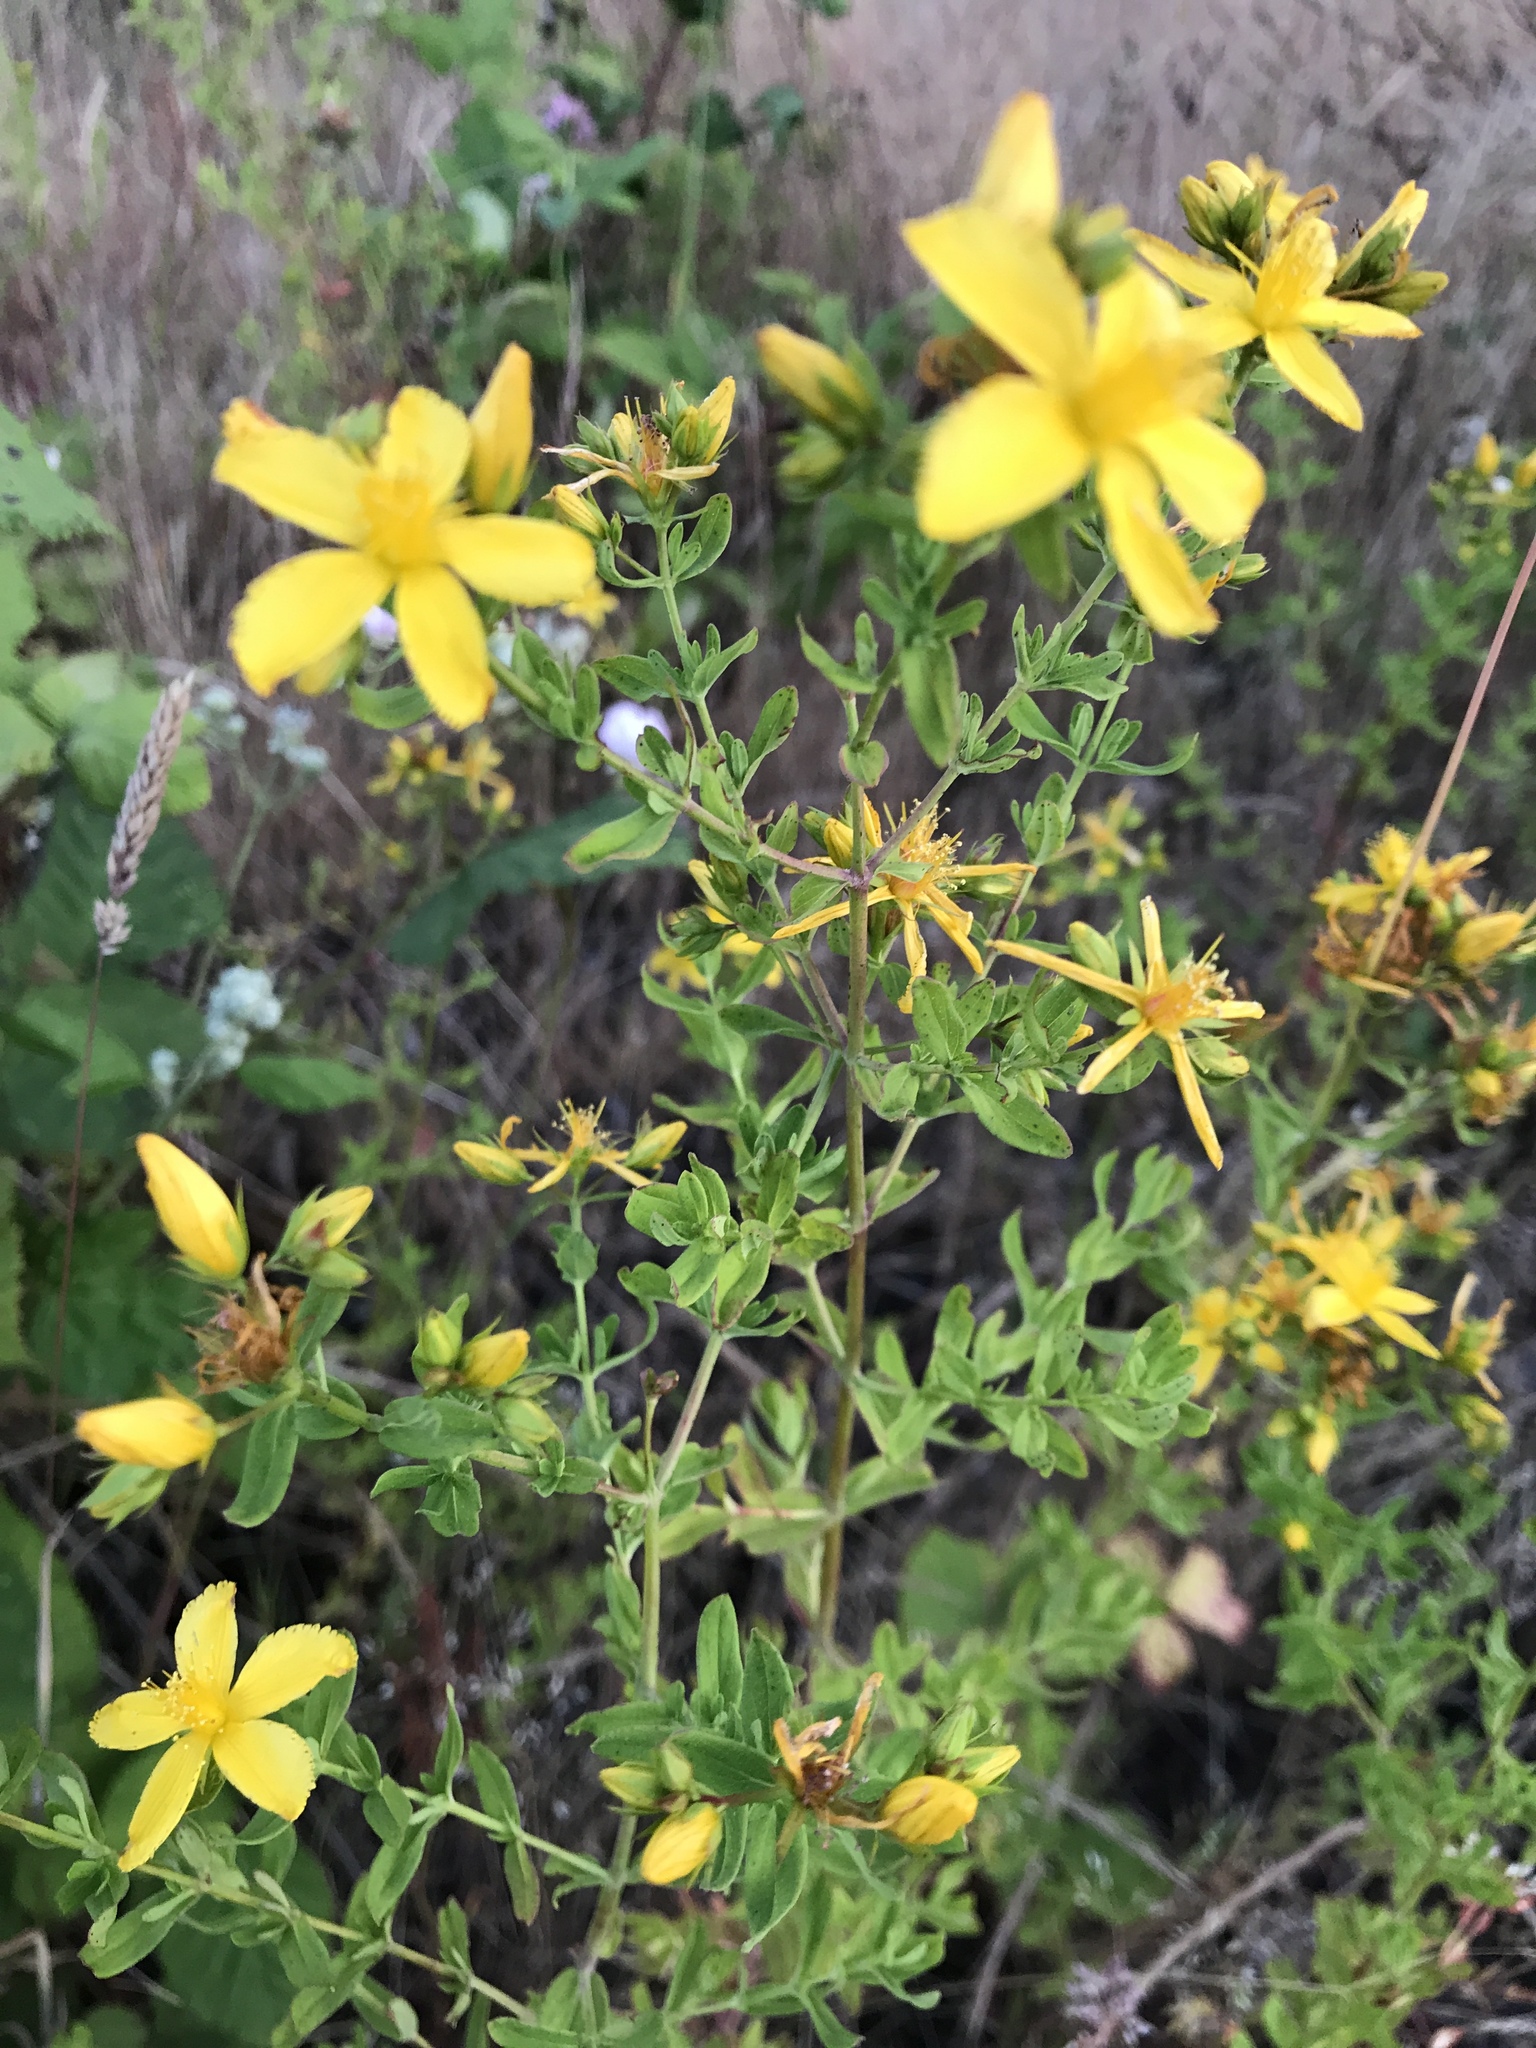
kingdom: Plantae
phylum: Tracheophyta
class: Magnoliopsida
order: Malpighiales
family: Hypericaceae
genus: Hypericum
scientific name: Hypericum perforatum
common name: Common st. johnswort
